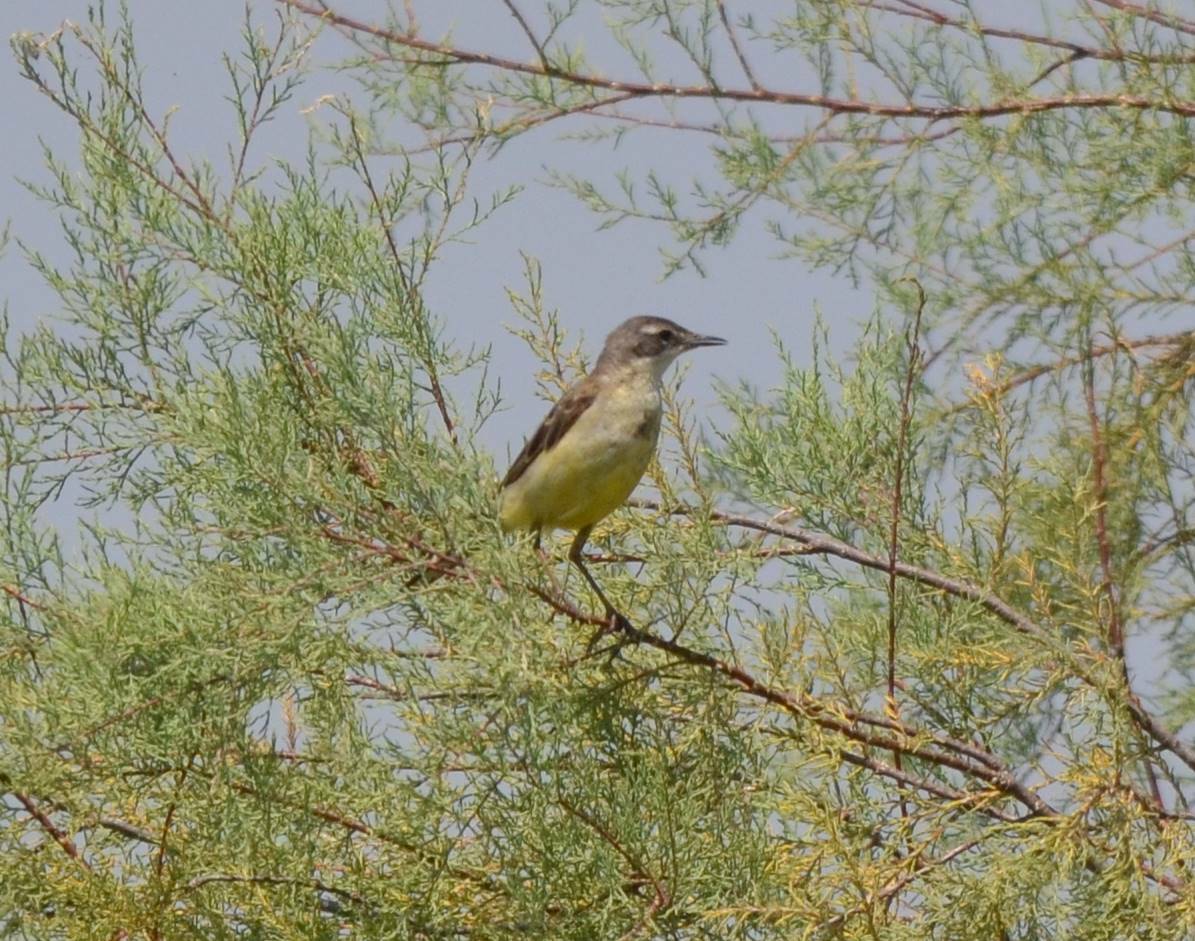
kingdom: Animalia
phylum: Chordata
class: Aves
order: Passeriformes
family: Motacillidae
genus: Motacilla
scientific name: Motacilla flava
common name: Western yellow wagtail
